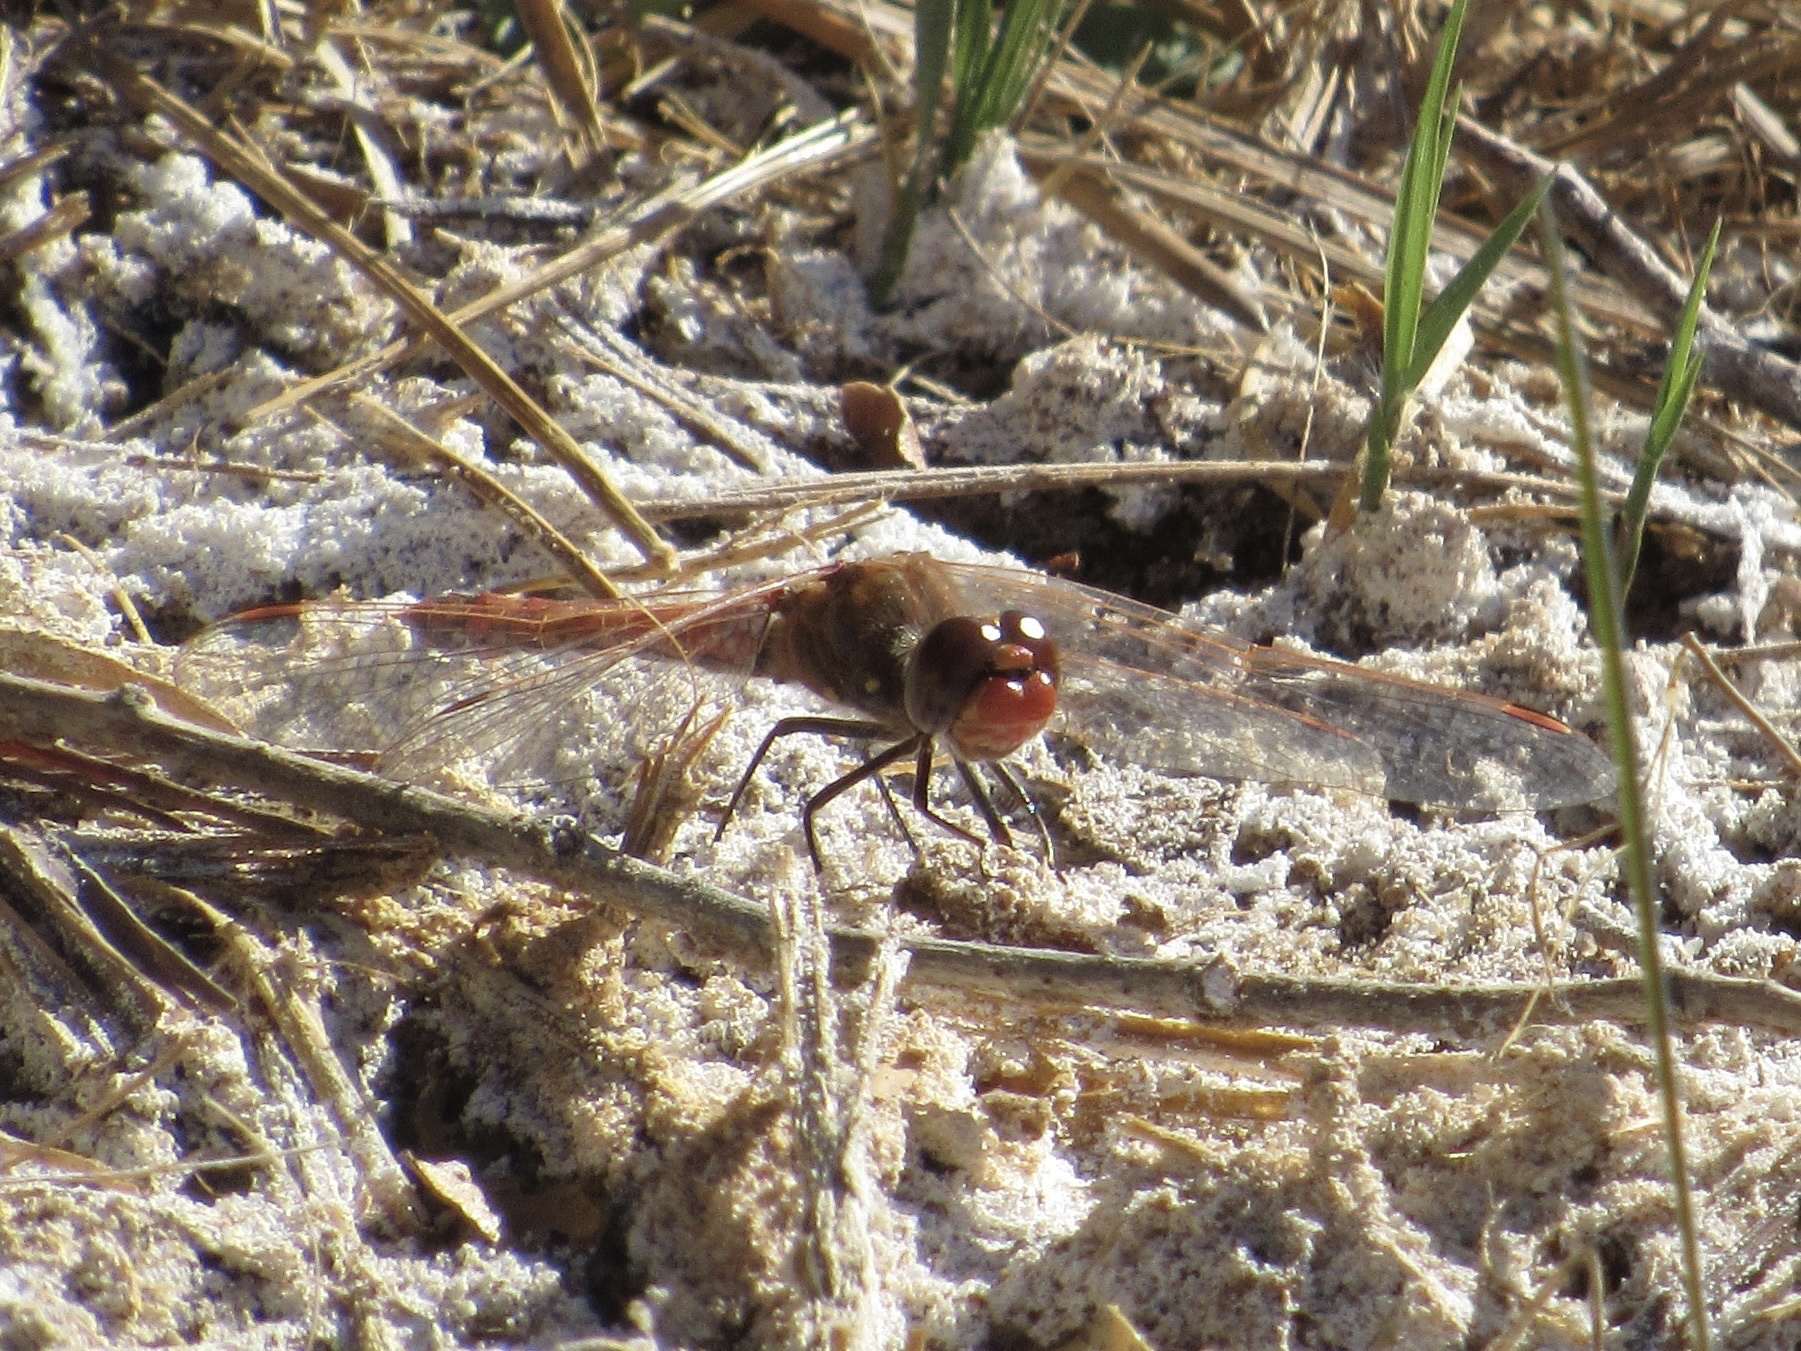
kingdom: Animalia
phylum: Arthropoda
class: Insecta
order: Odonata
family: Libellulidae
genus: Sympetrum
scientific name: Sympetrum corruptum
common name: Variegated meadowhawk
